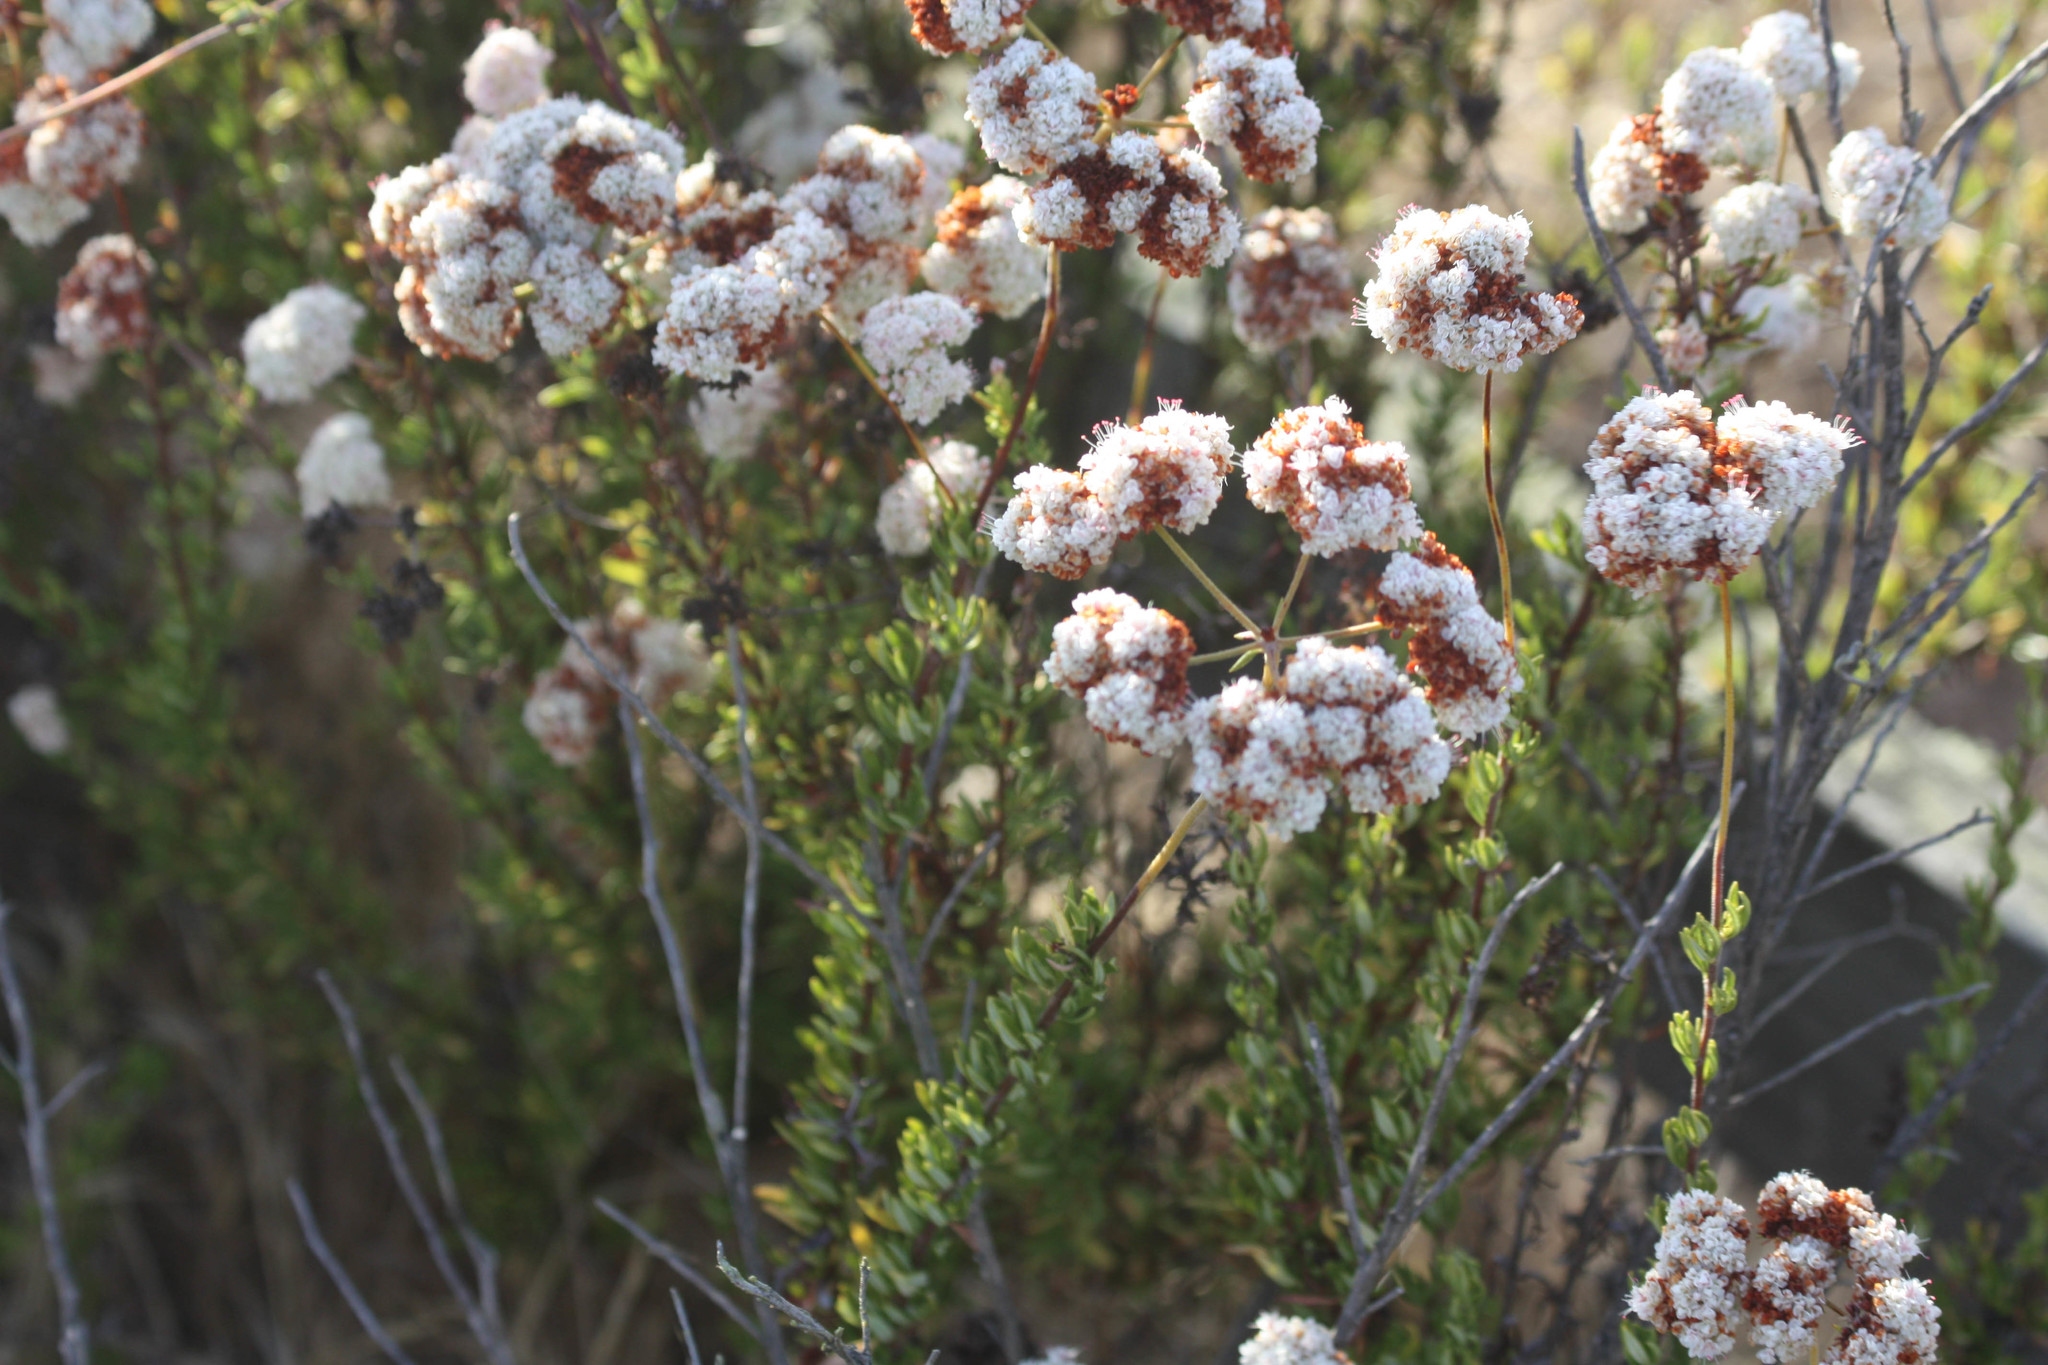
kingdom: Plantae
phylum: Tracheophyta
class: Magnoliopsida
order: Caryophyllales
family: Polygonaceae
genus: Eriogonum
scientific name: Eriogonum fasciculatum
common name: California wild buckwheat
